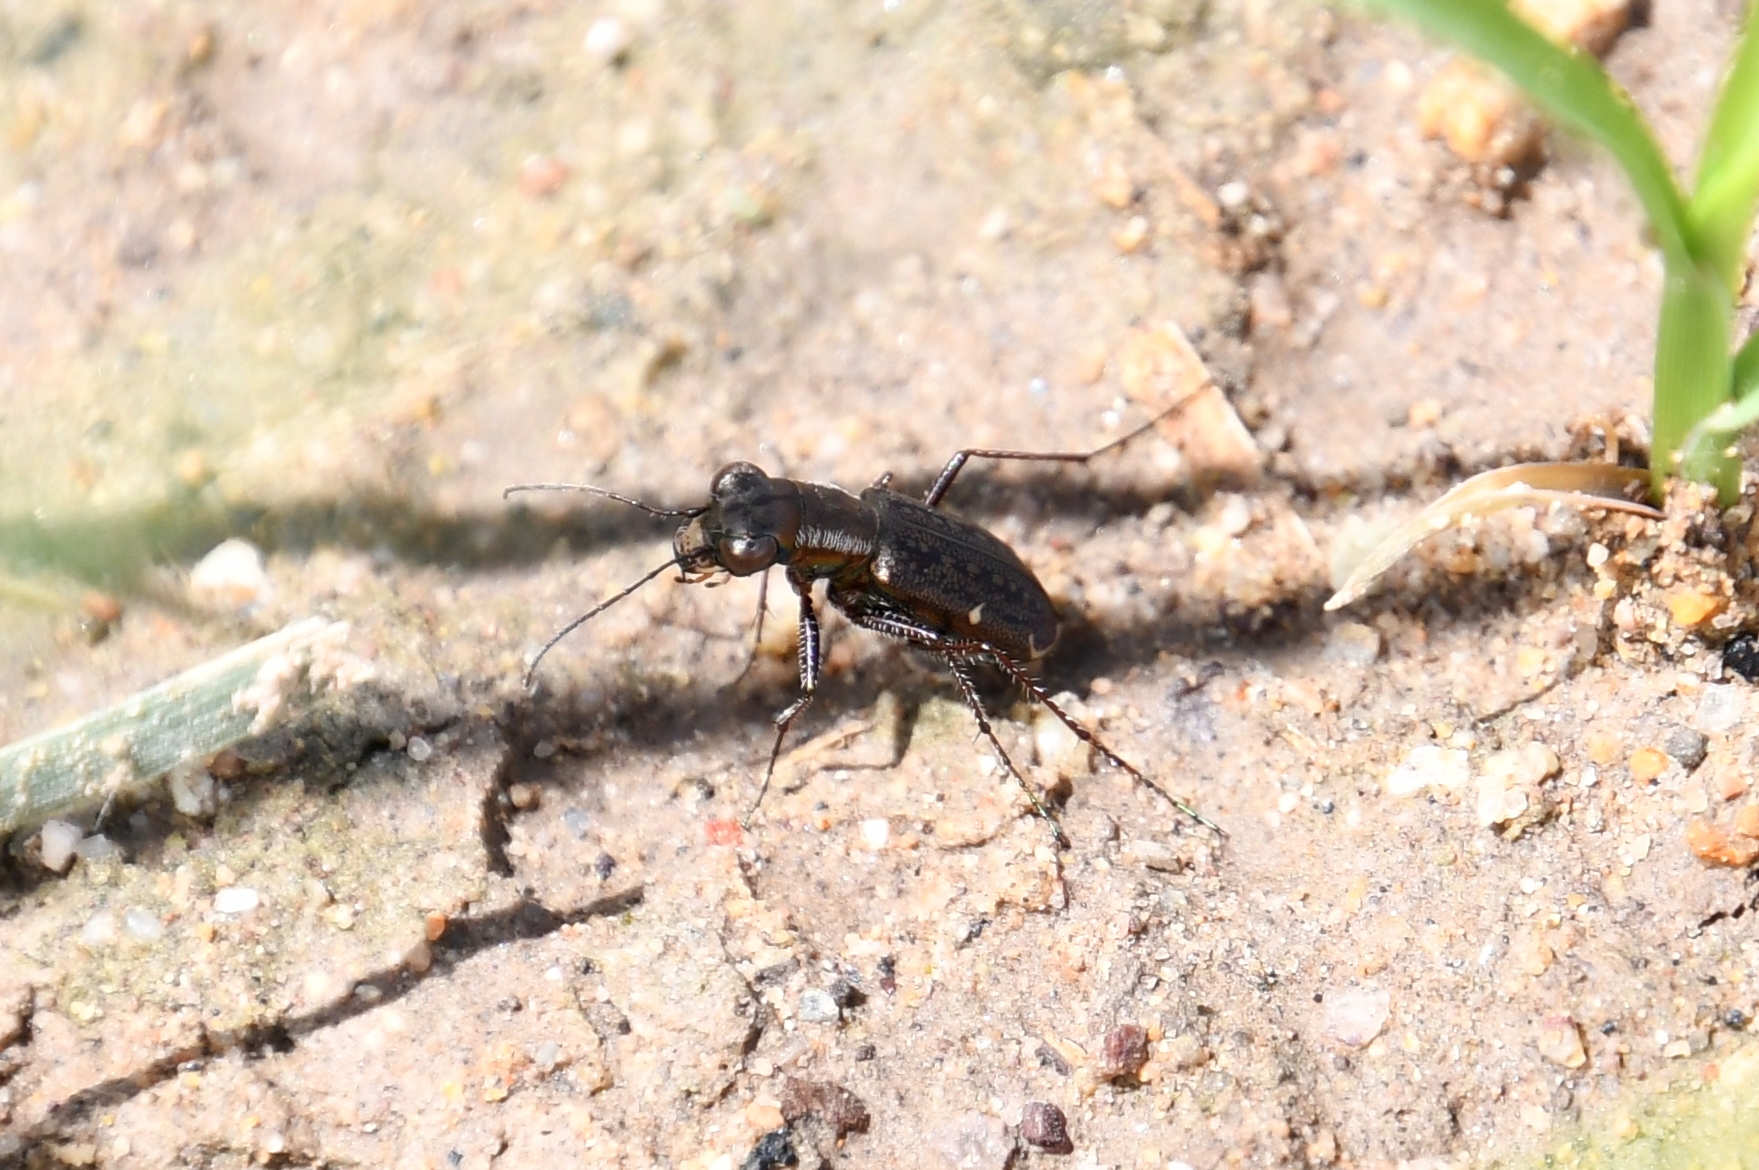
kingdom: Animalia
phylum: Arthropoda
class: Insecta
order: Coleoptera
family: Carabidae
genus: Brasiella
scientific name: Brasiella viridisticta
